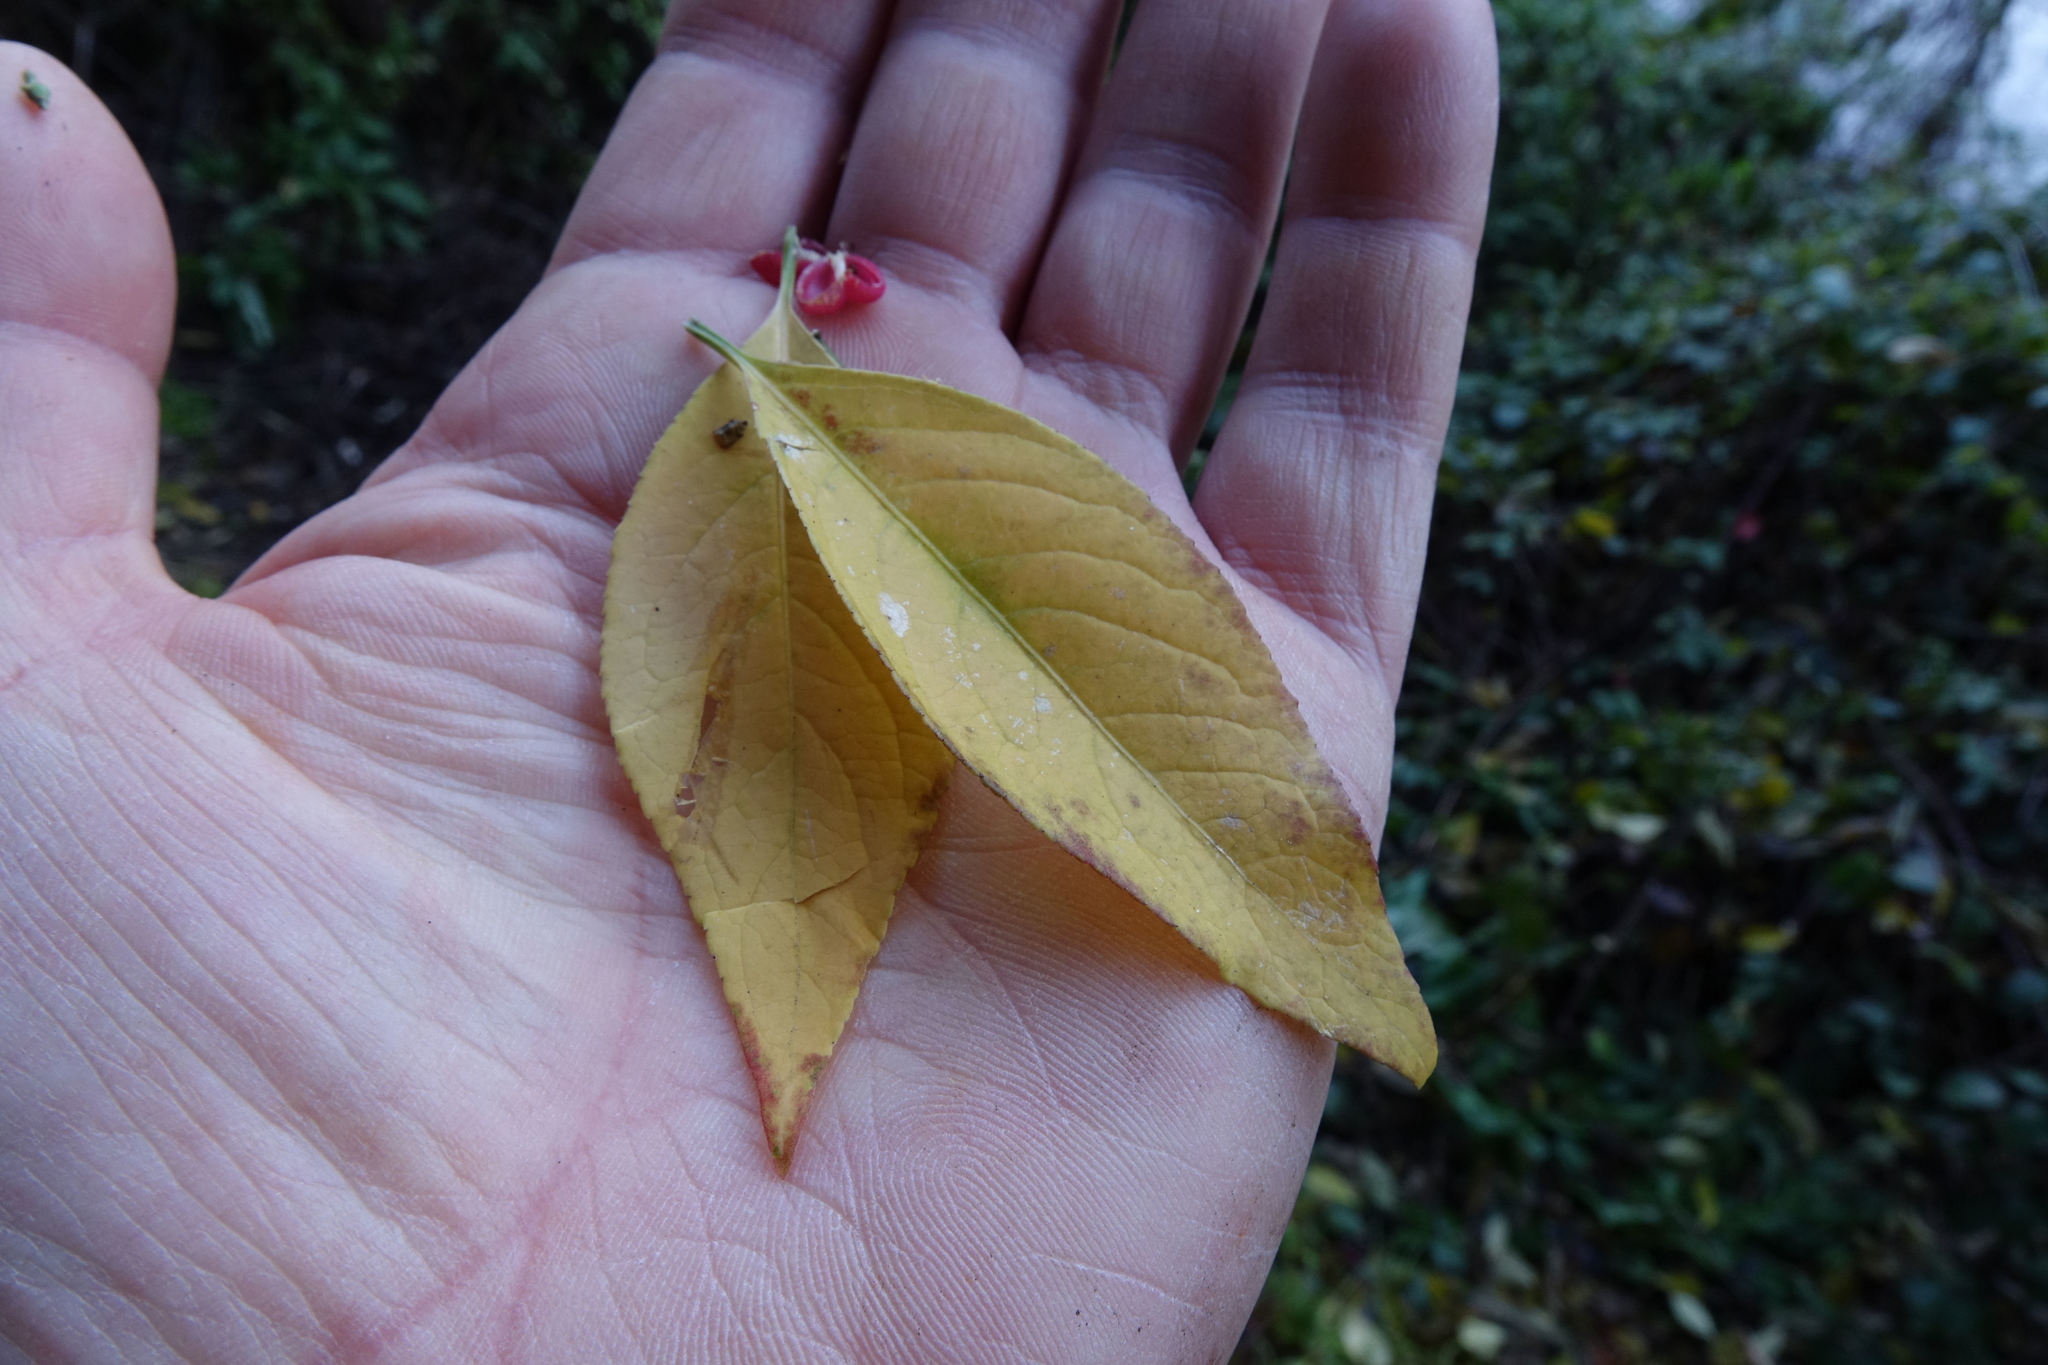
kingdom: Plantae
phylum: Tracheophyta
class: Magnoliopsida
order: Celastrales
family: Celastraceae
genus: Euonymus
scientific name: Euonymus europaeus
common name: Spindle
